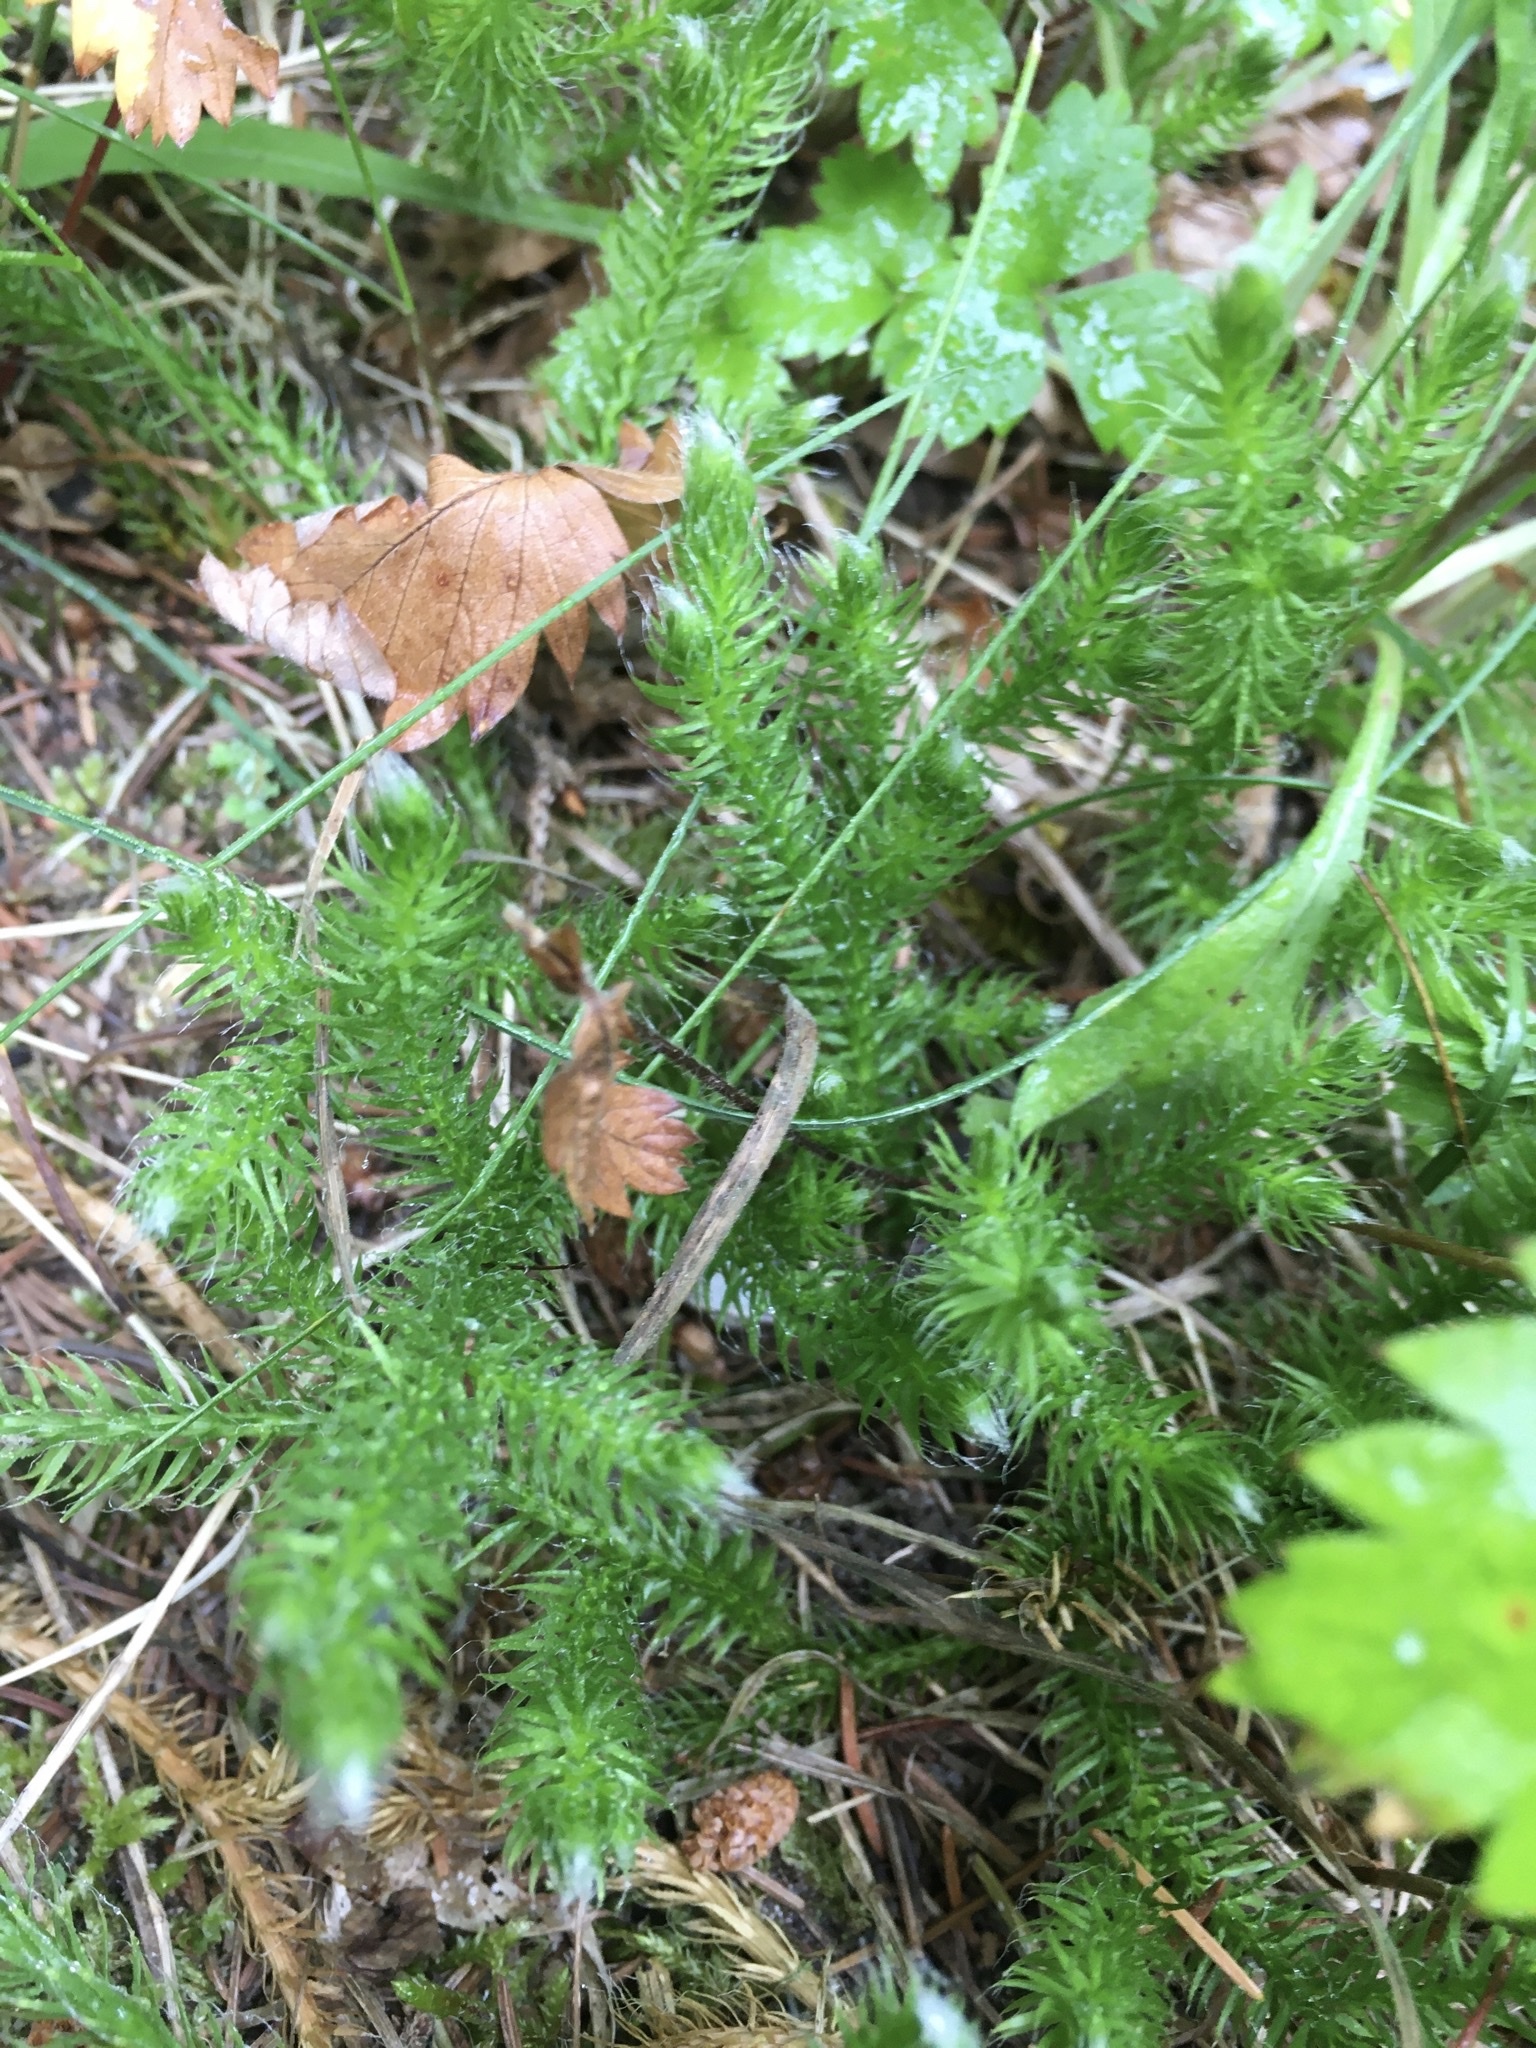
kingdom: Plantae
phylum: Tracheophyta
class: Lycopodiopsida
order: Lycopodiales
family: Lycopodiaceae
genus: Lycopodium
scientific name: Lycopodium clavatum
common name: Stag's-horn clubmoss
